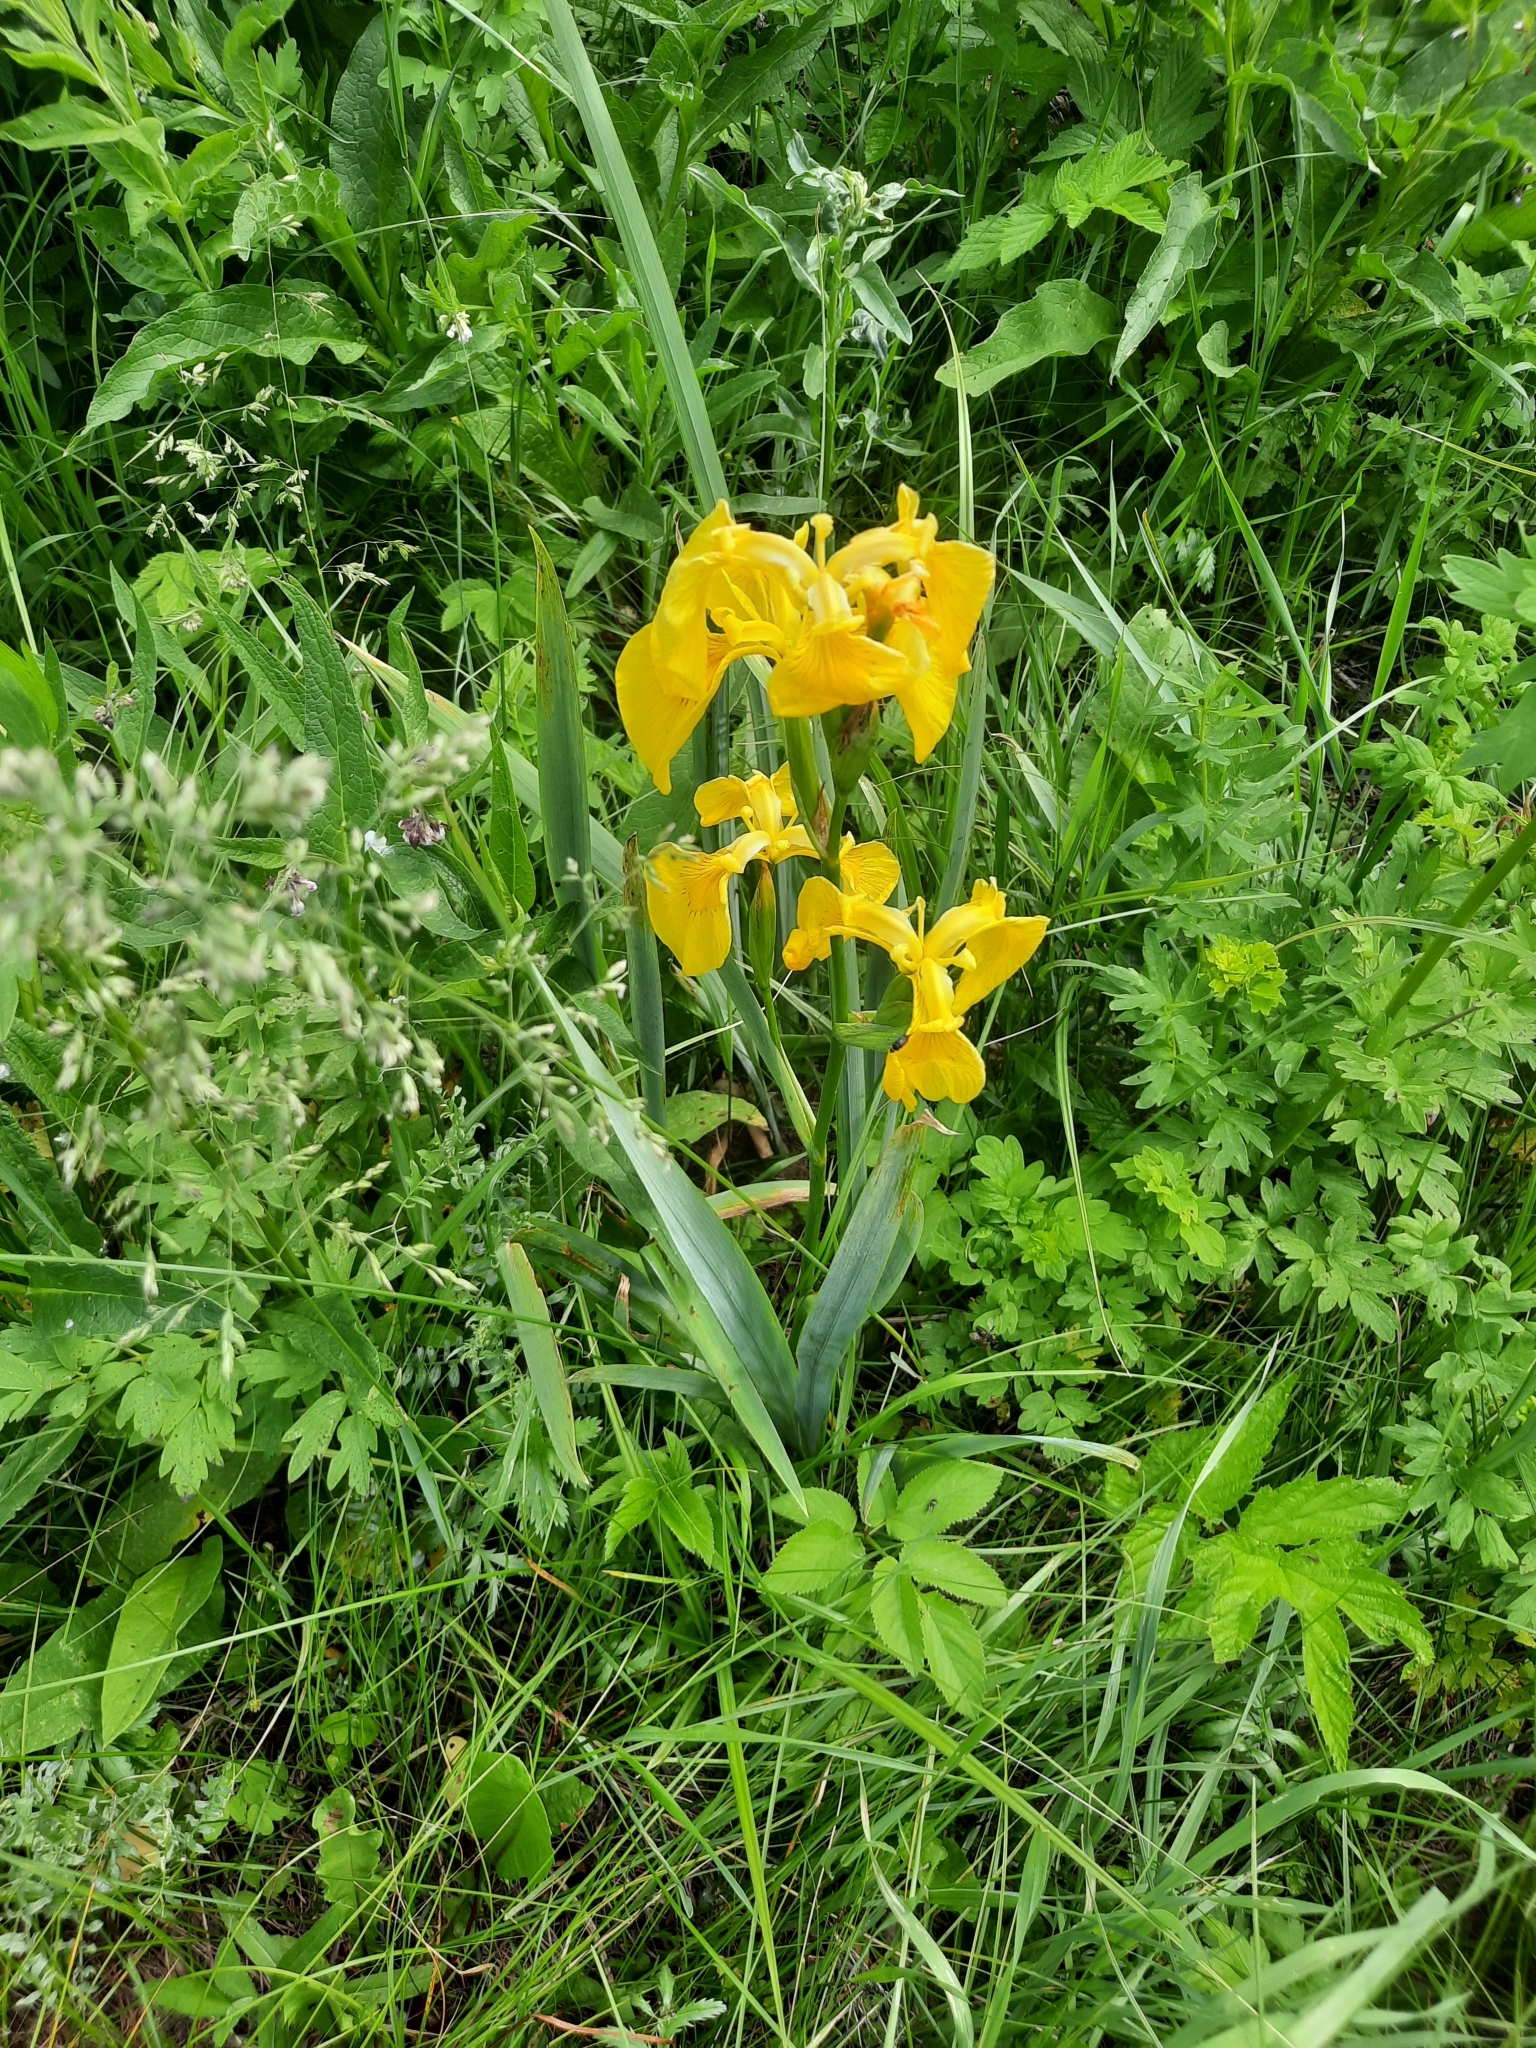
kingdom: Plantae
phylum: Tracheophyta
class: Liliopsida
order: Asparagales
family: Iridaceae
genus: Iris
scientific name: Iris pseudacorus
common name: Yellow flag
